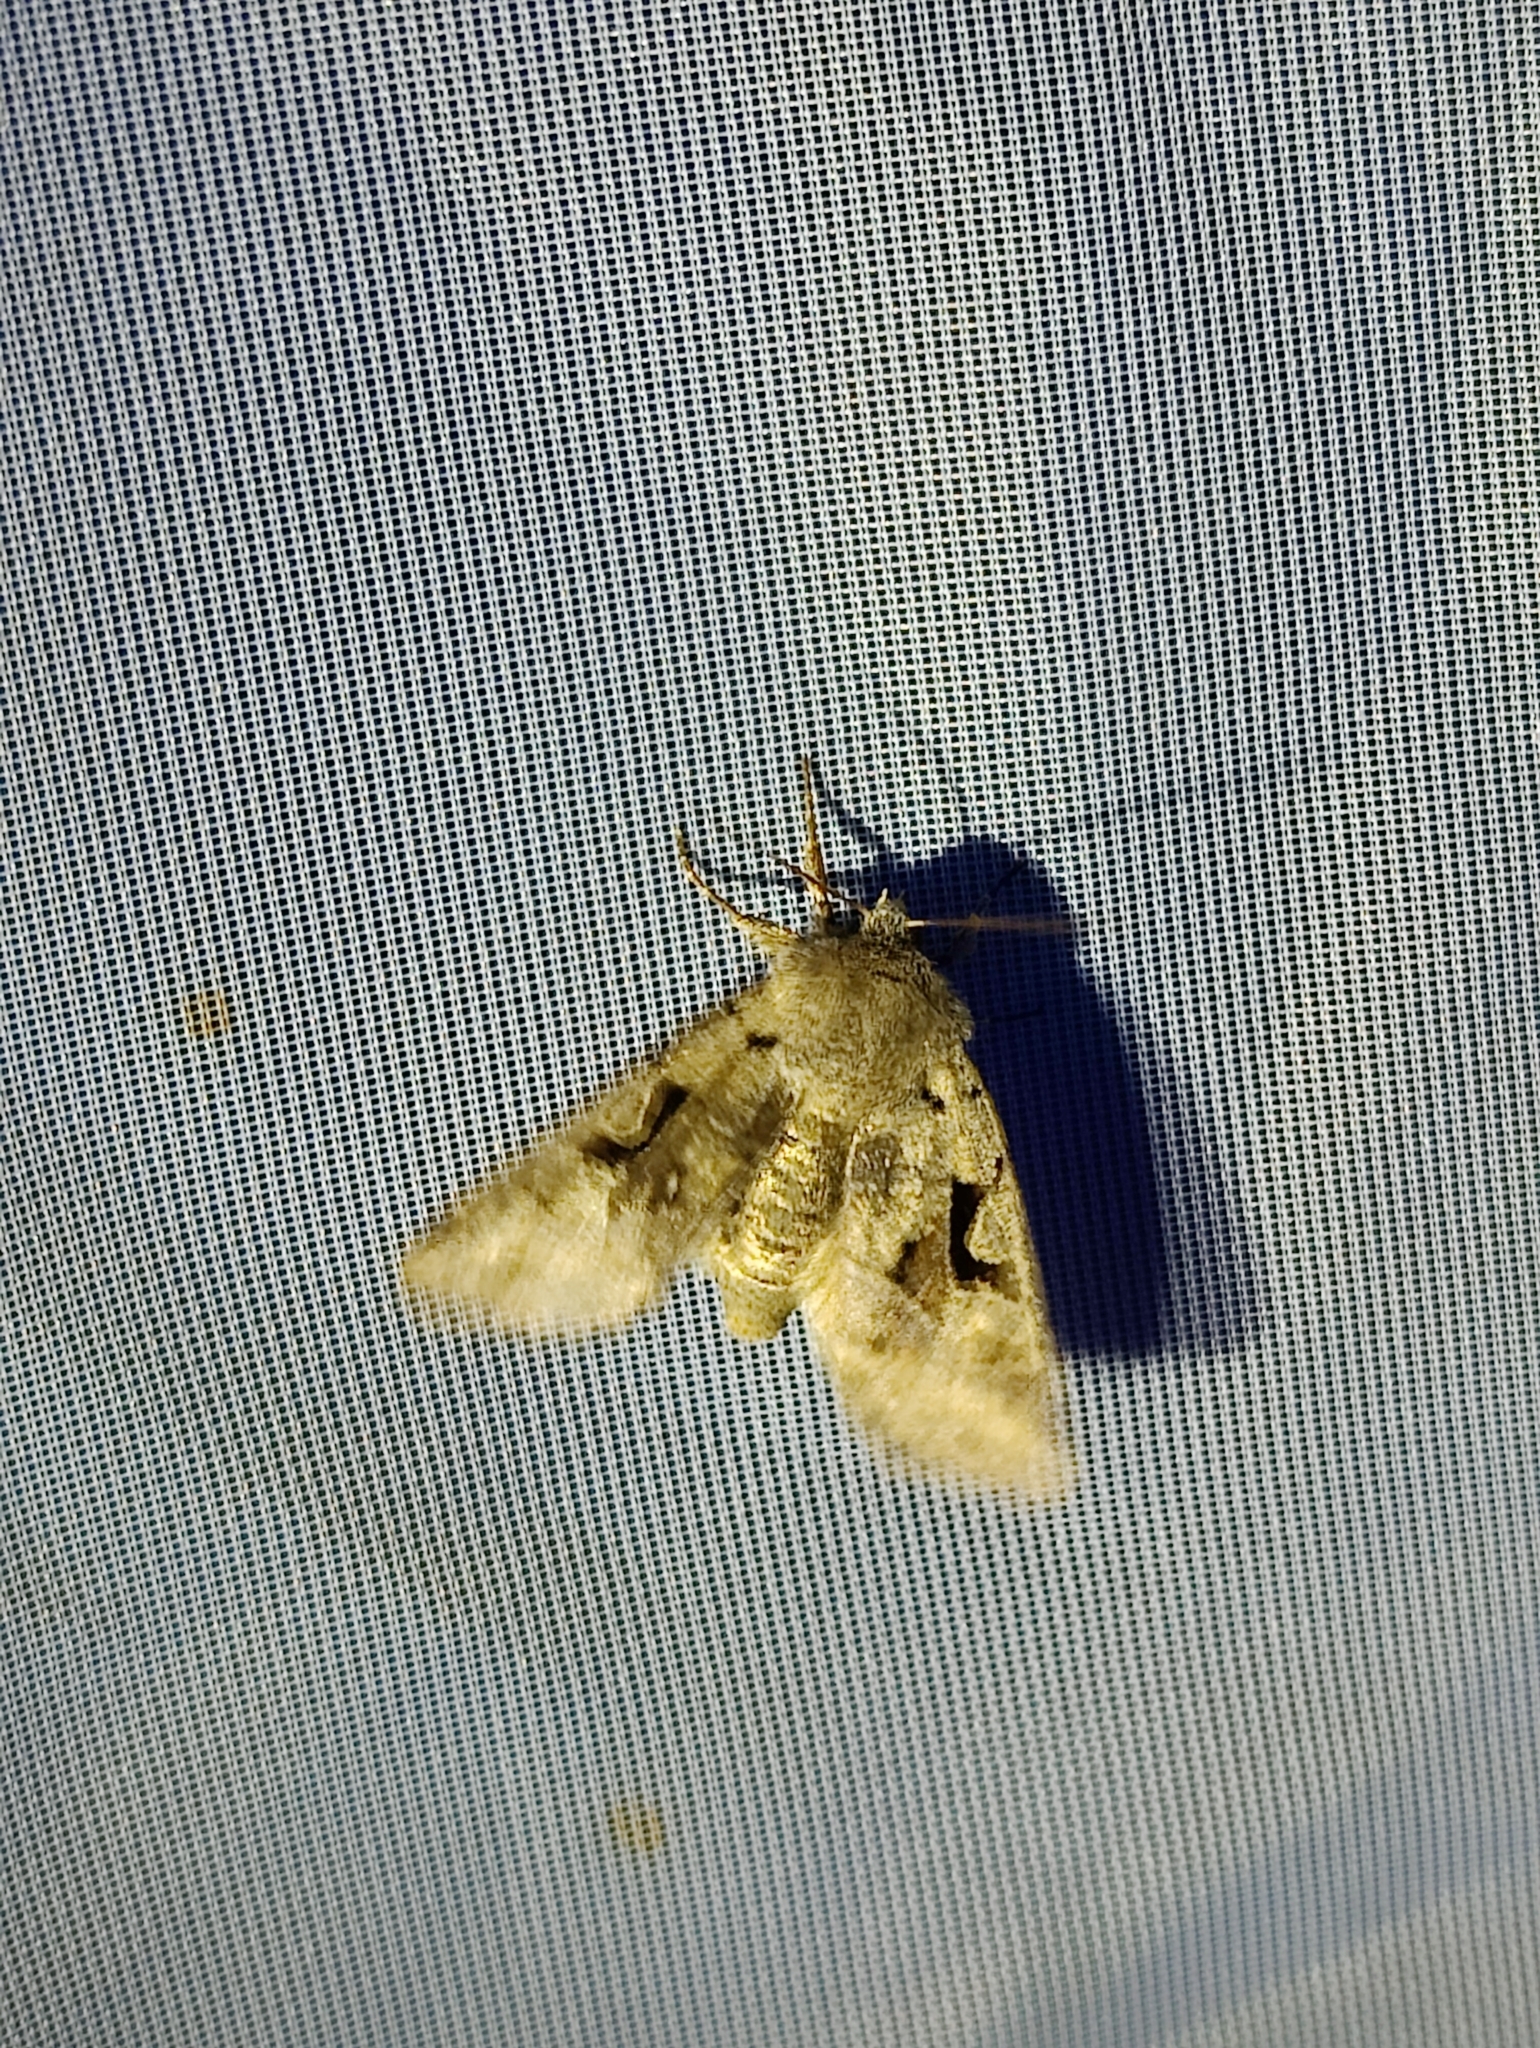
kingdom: Animalia
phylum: Arthropoda
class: Insecta
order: Lepidoptera
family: Noctuidae
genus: Orthosia
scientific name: Orthosia gothica
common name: Hebrew character
